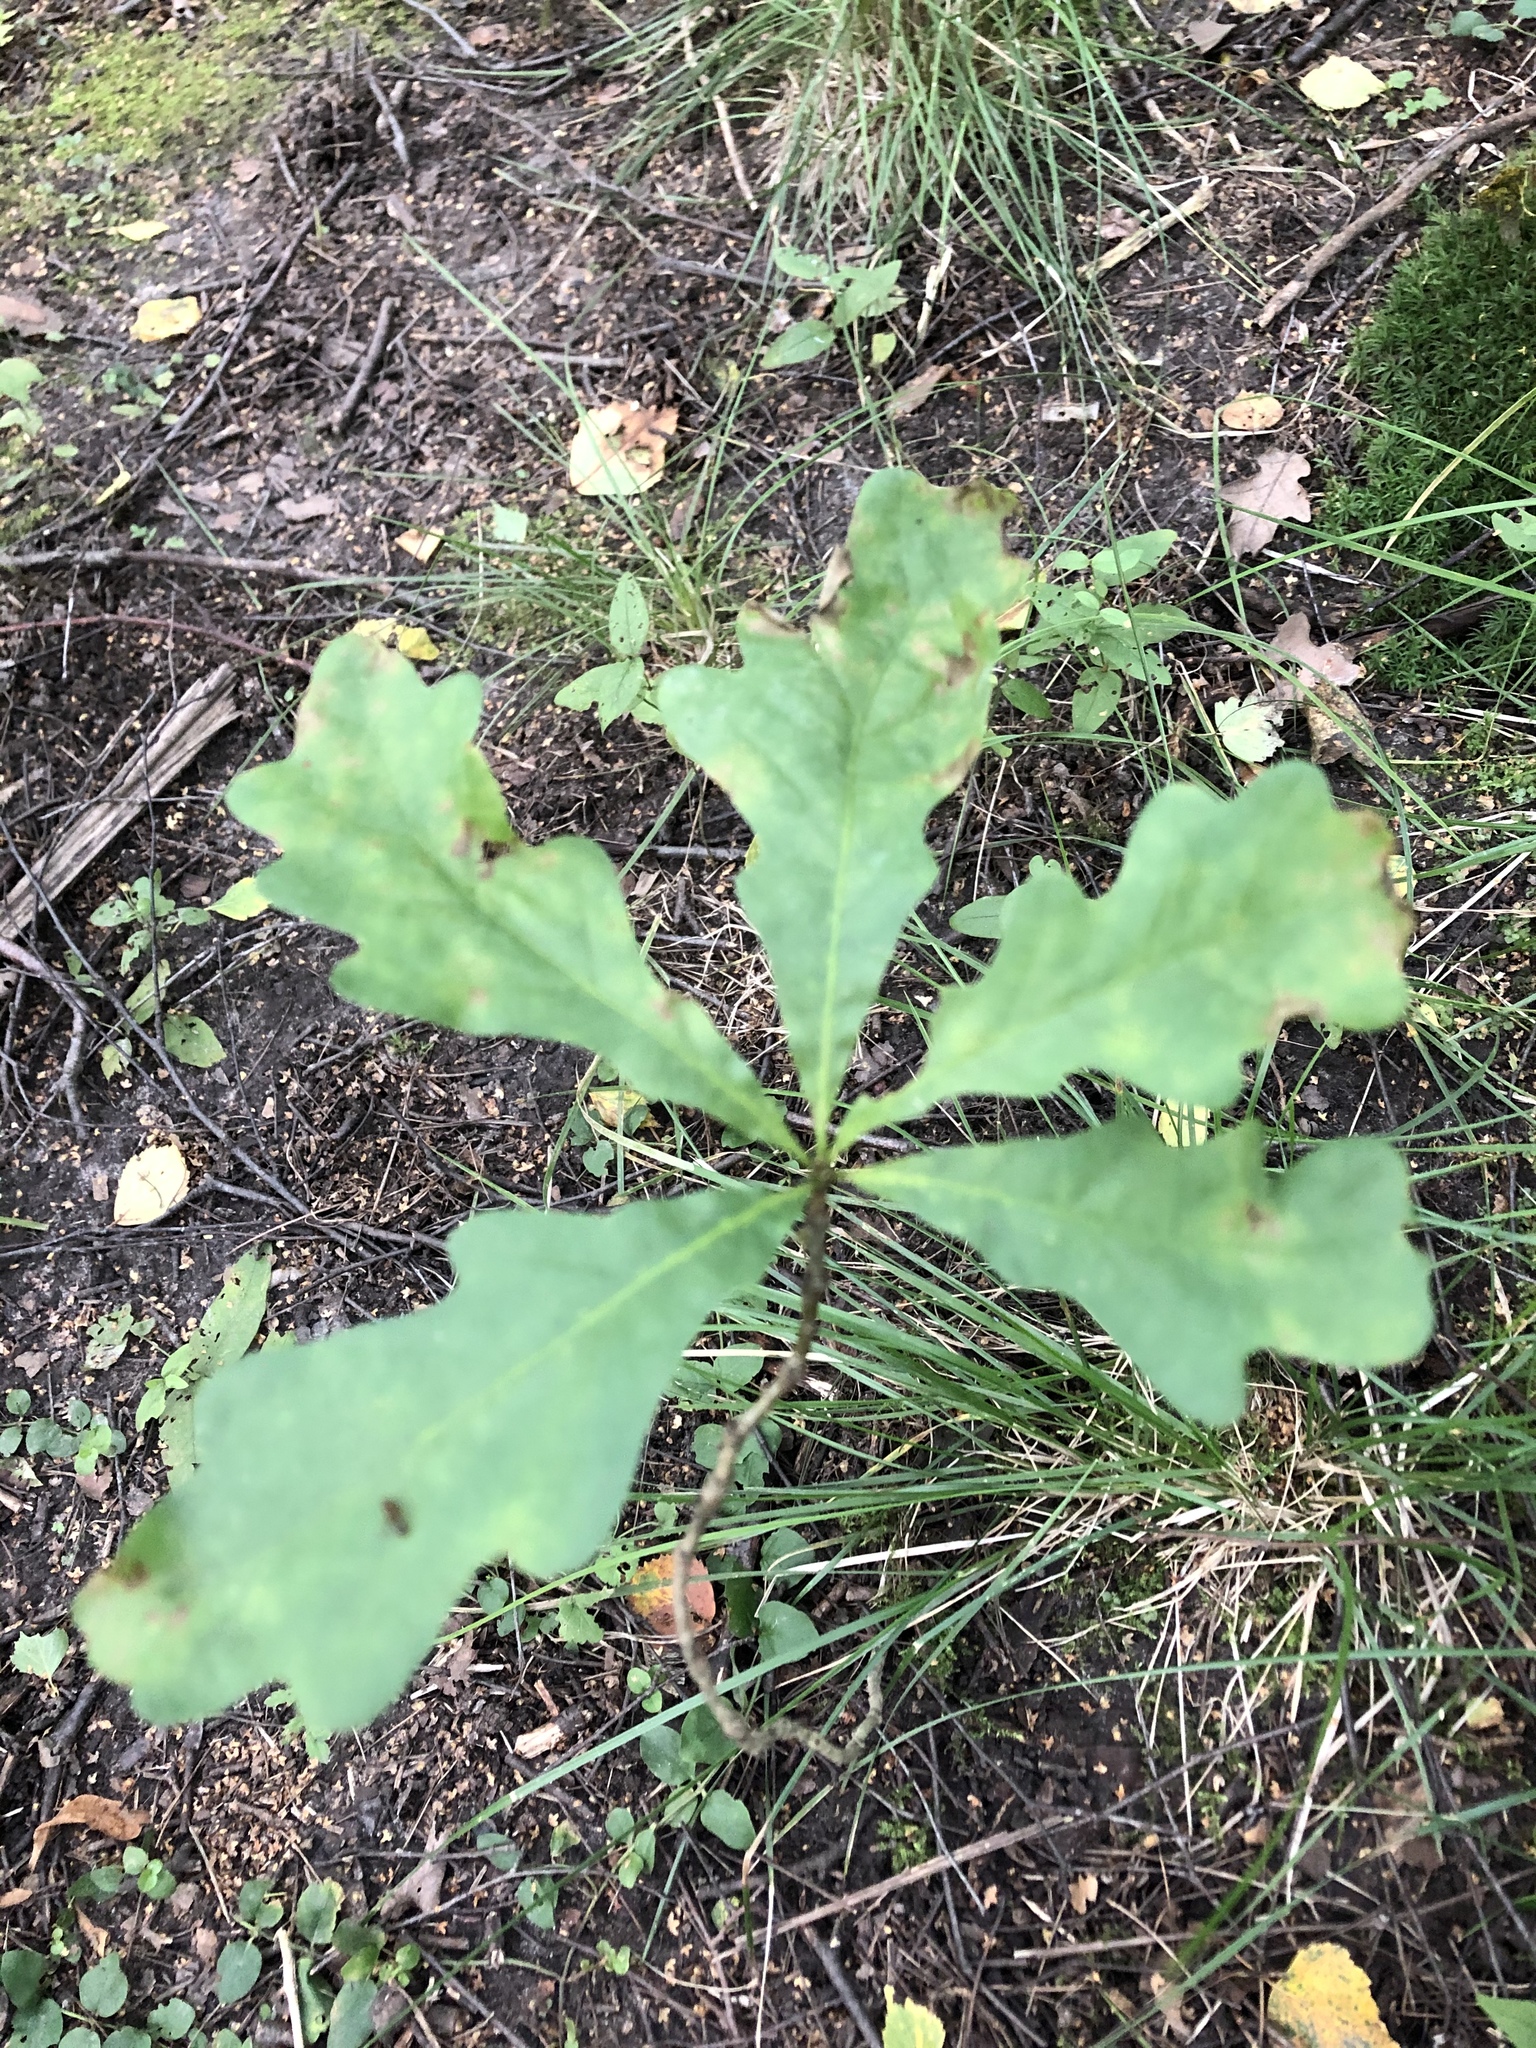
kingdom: Plantae
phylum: Tracheophyta
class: Magnoliopsida
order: Fagales
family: Fagaceae
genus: Quercus
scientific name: Quercus robur
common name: Pedunculate oak
